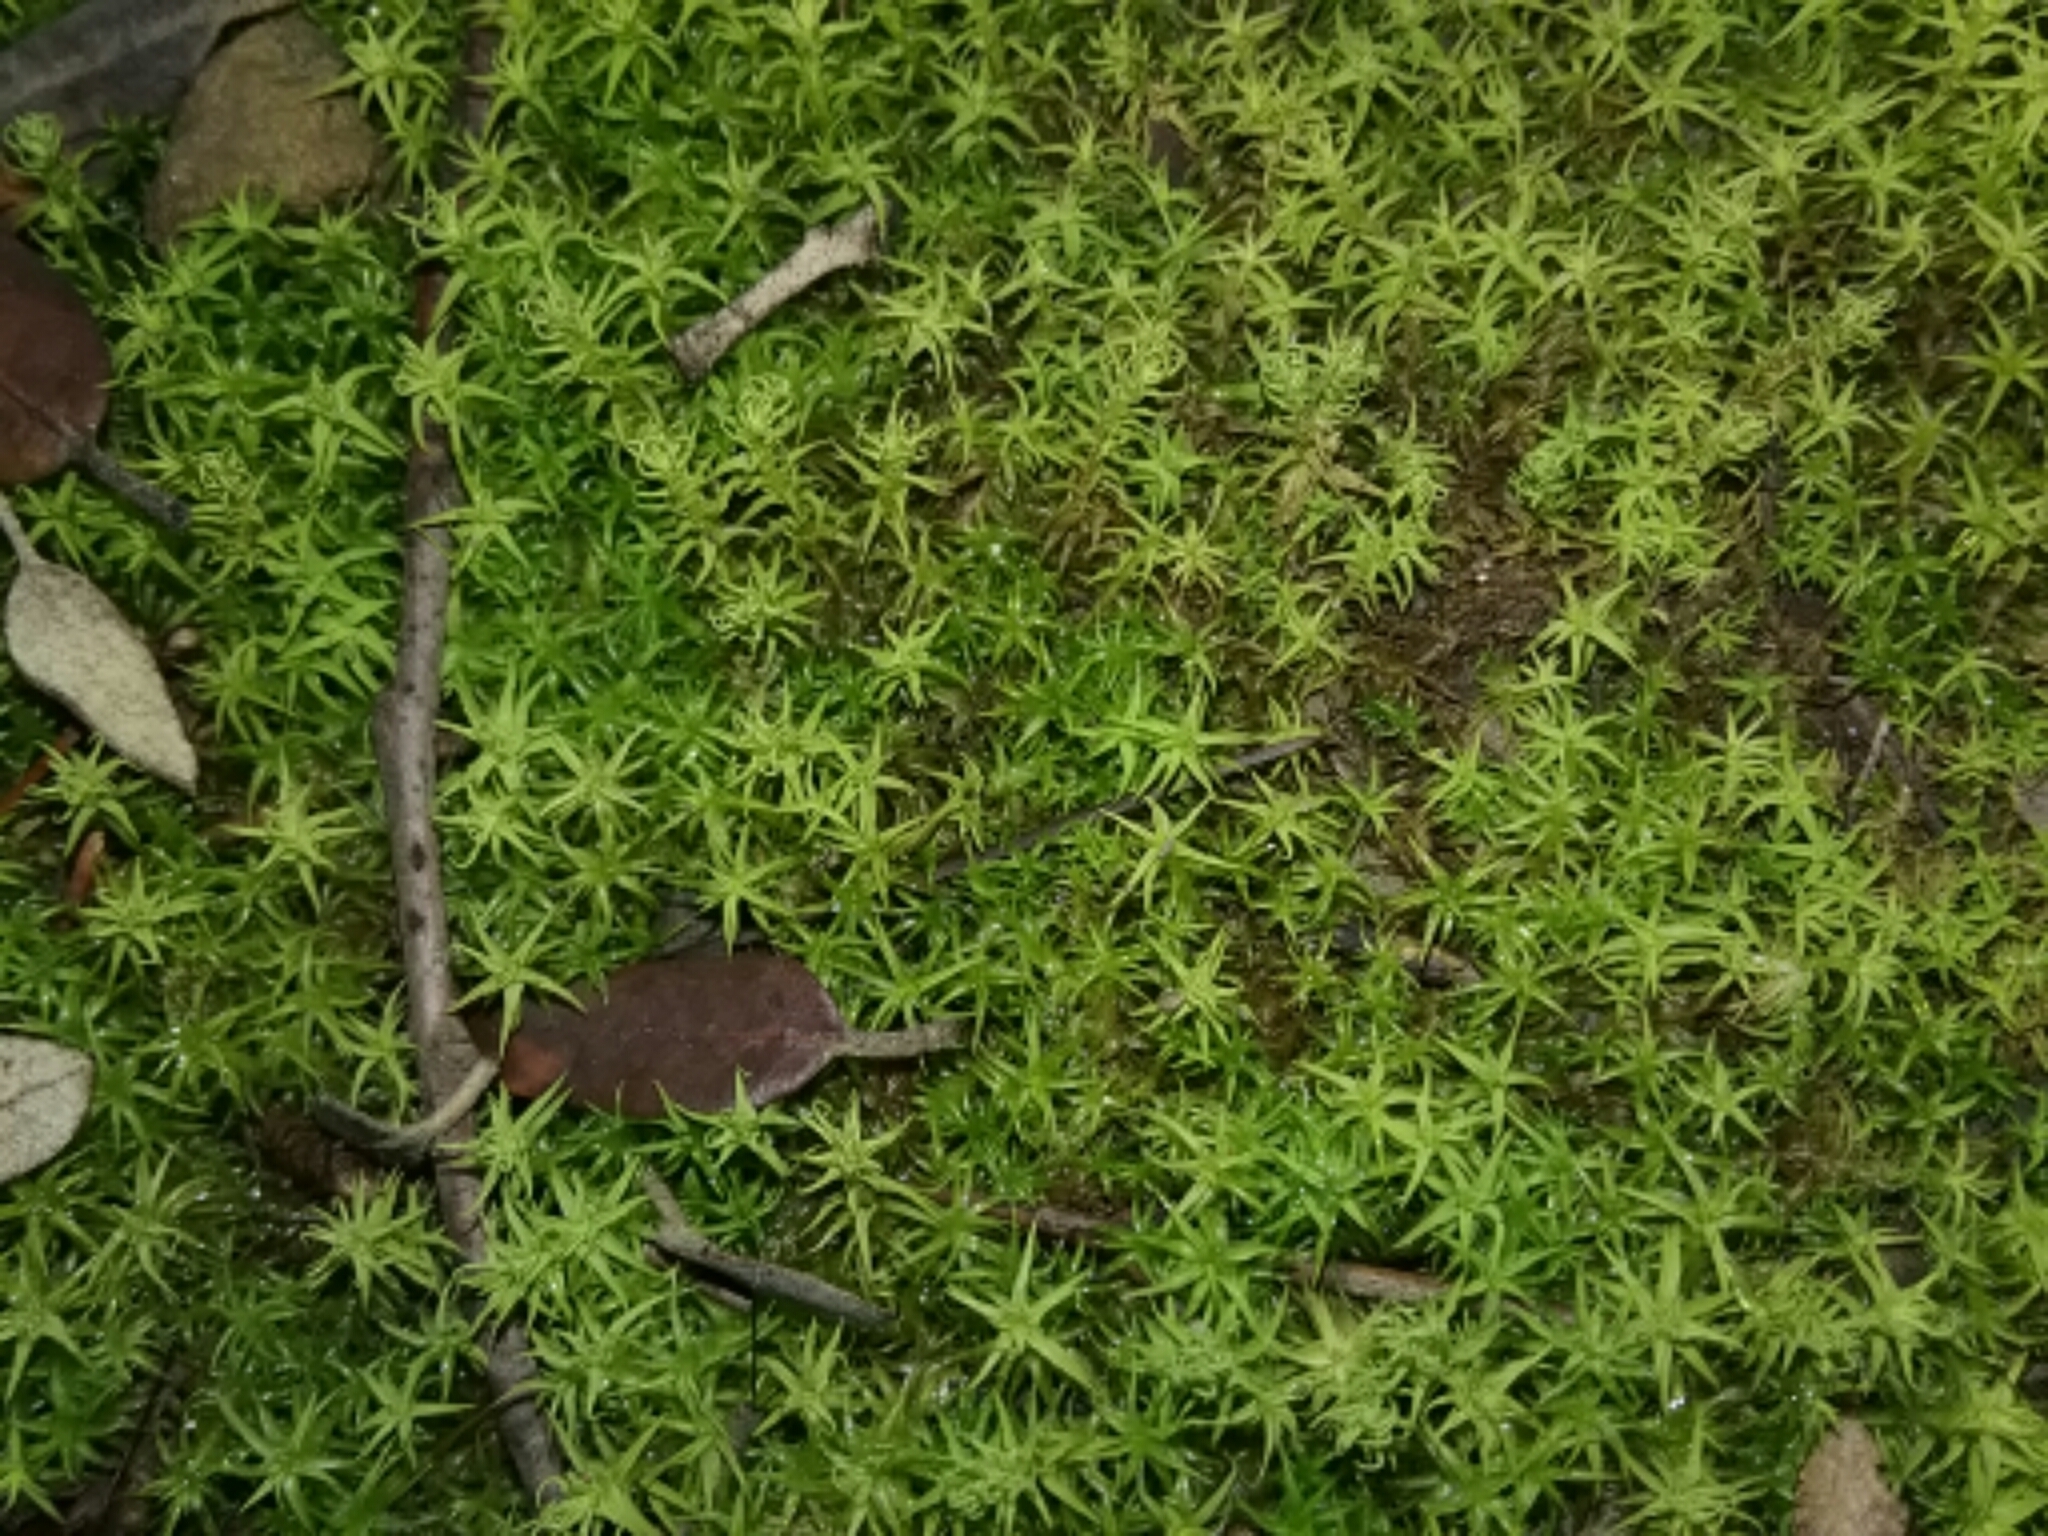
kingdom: Plantae
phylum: Bryophyta
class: Bryopsida
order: Pottiales
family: Pottiaceae
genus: Pleurochaete
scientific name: Pleurochaete squarrosa
